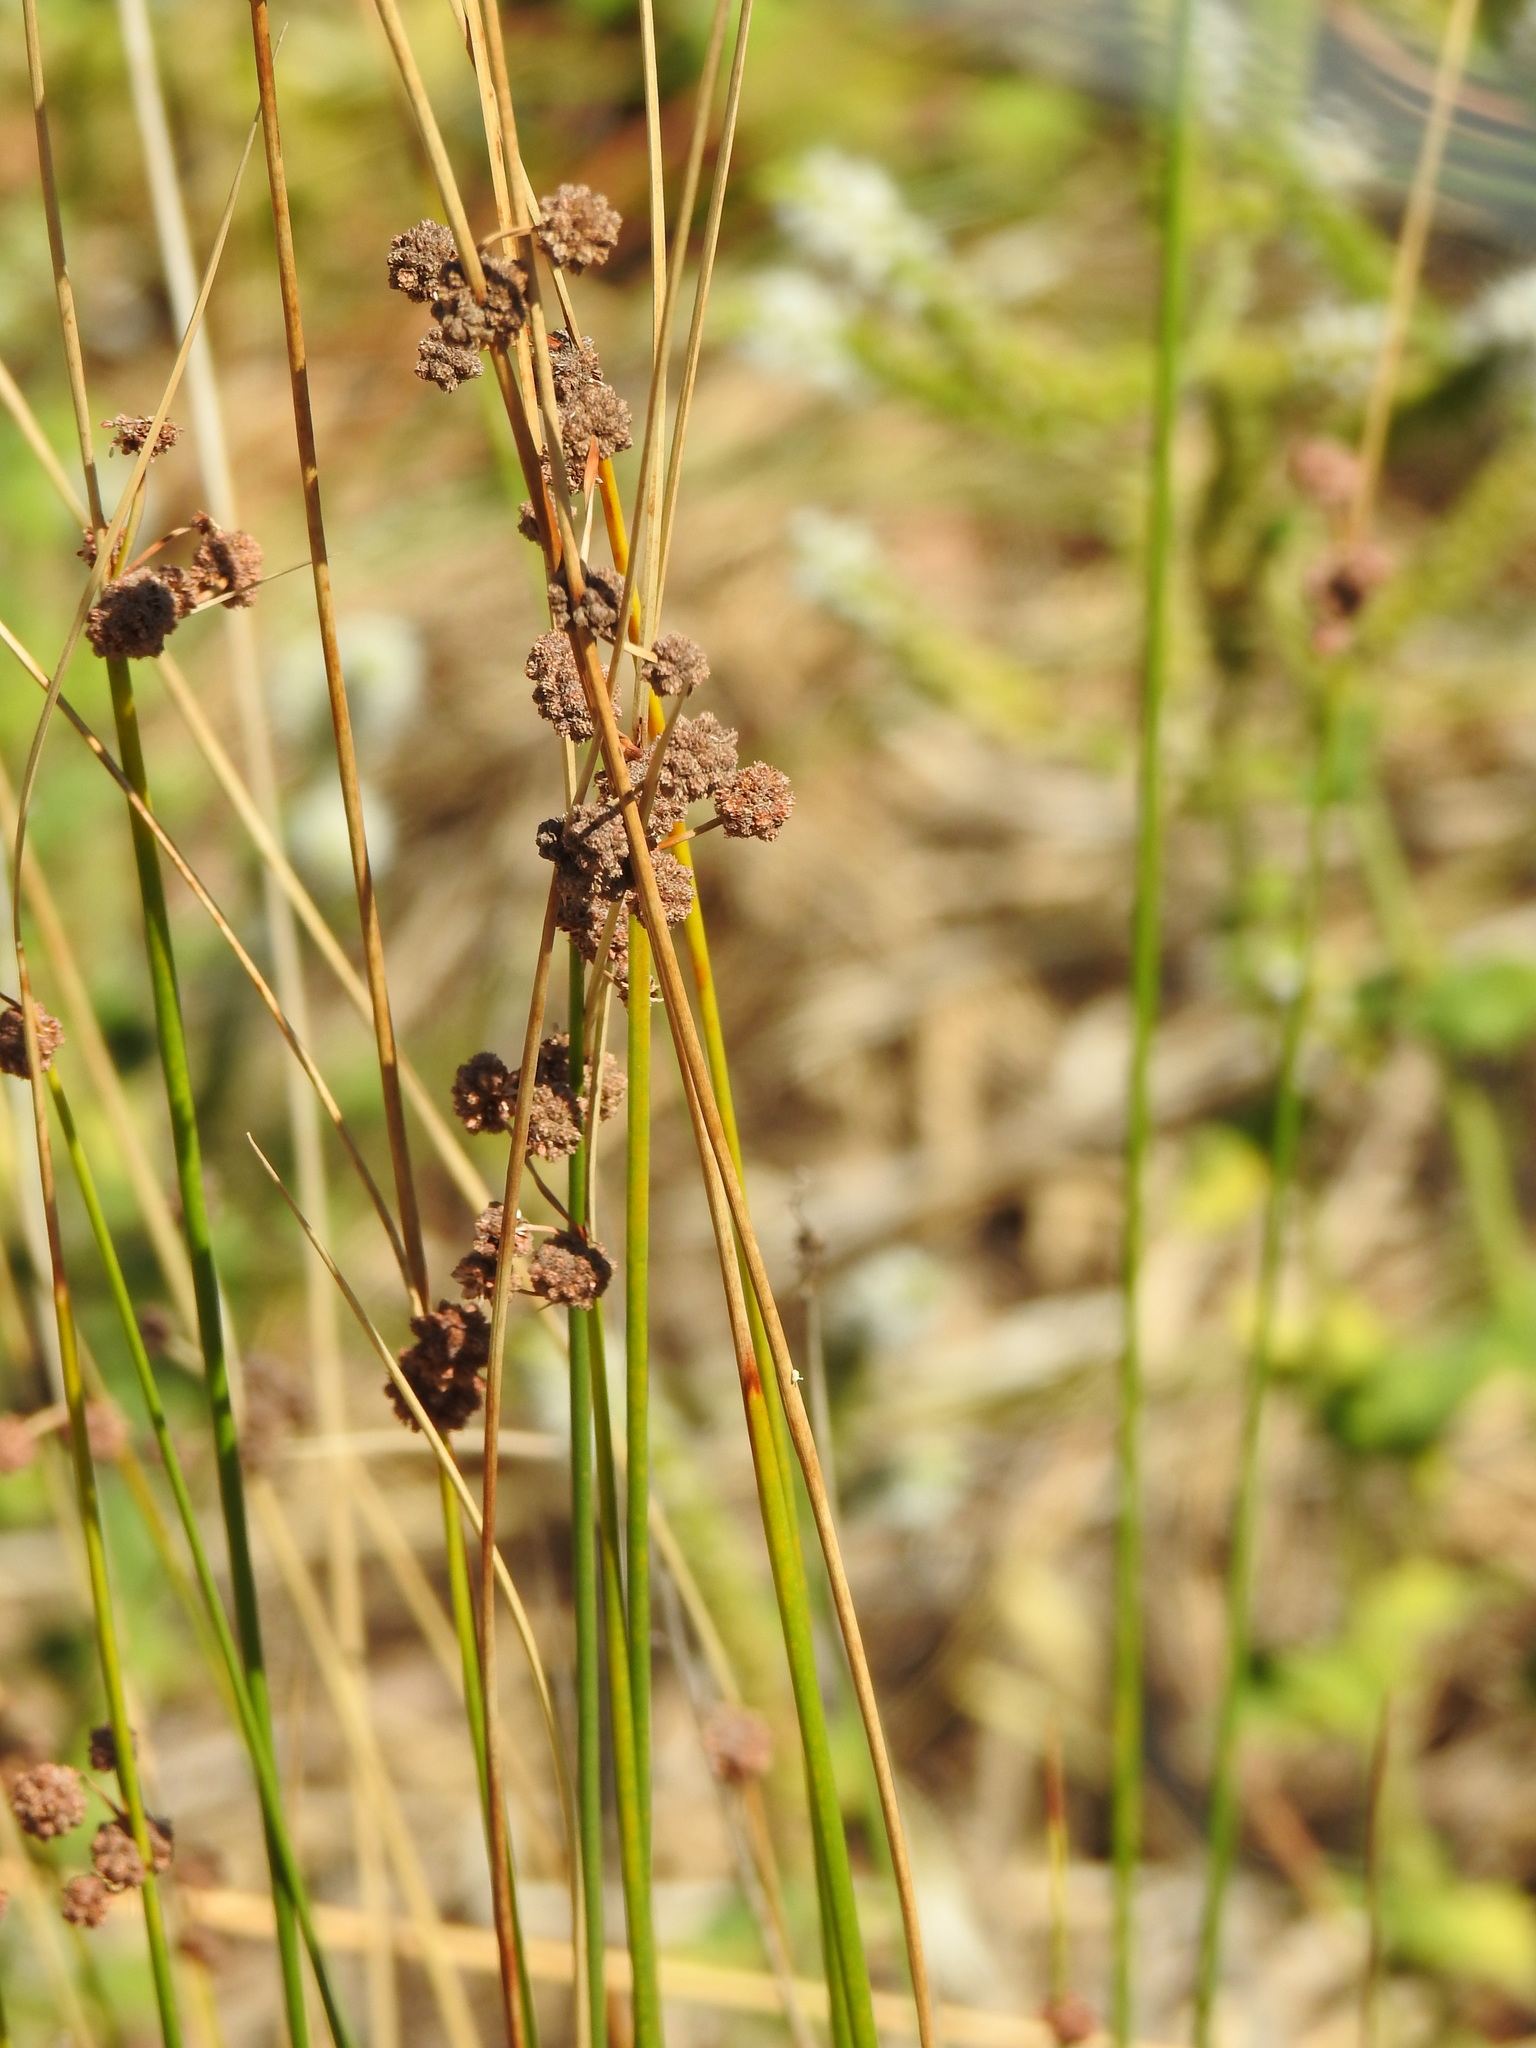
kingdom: Plantae
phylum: Tracheophyta
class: Liliopsida
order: Poales
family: Cyperaceae
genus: Scirpoides
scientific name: Scirpoides holoschoenus
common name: Round-headed club-rush
